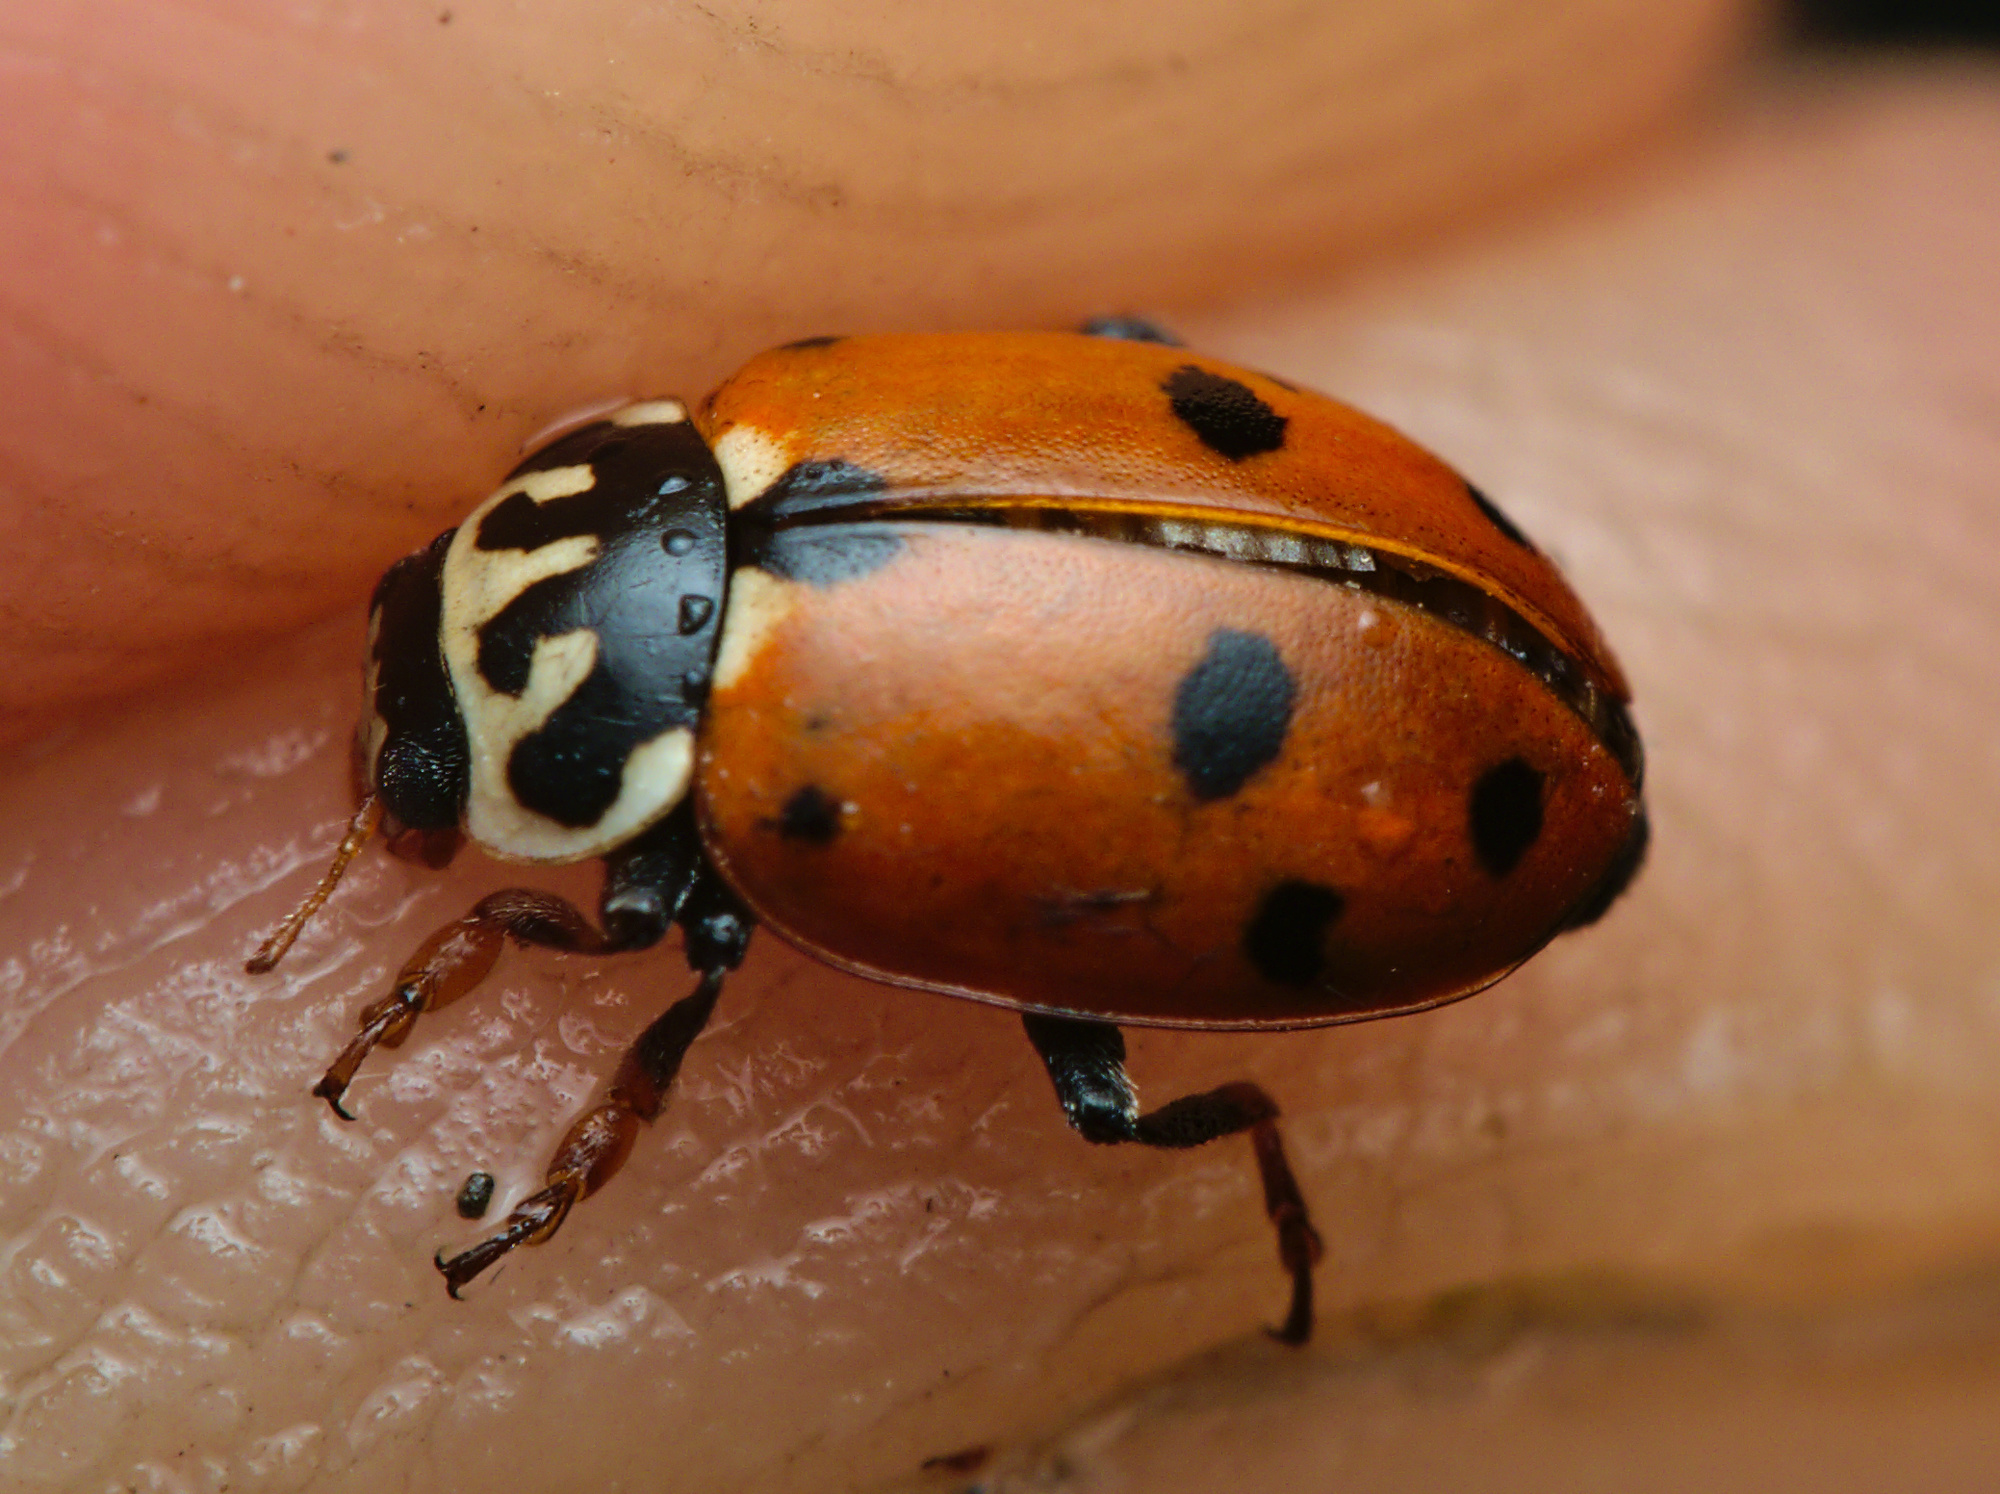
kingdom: Animalia
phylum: Arthropoda
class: Insecta
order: Coleoptera
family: Coccinellidae
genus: Hippodamia
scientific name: Hippodamia variegata
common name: Ladybird beetle
